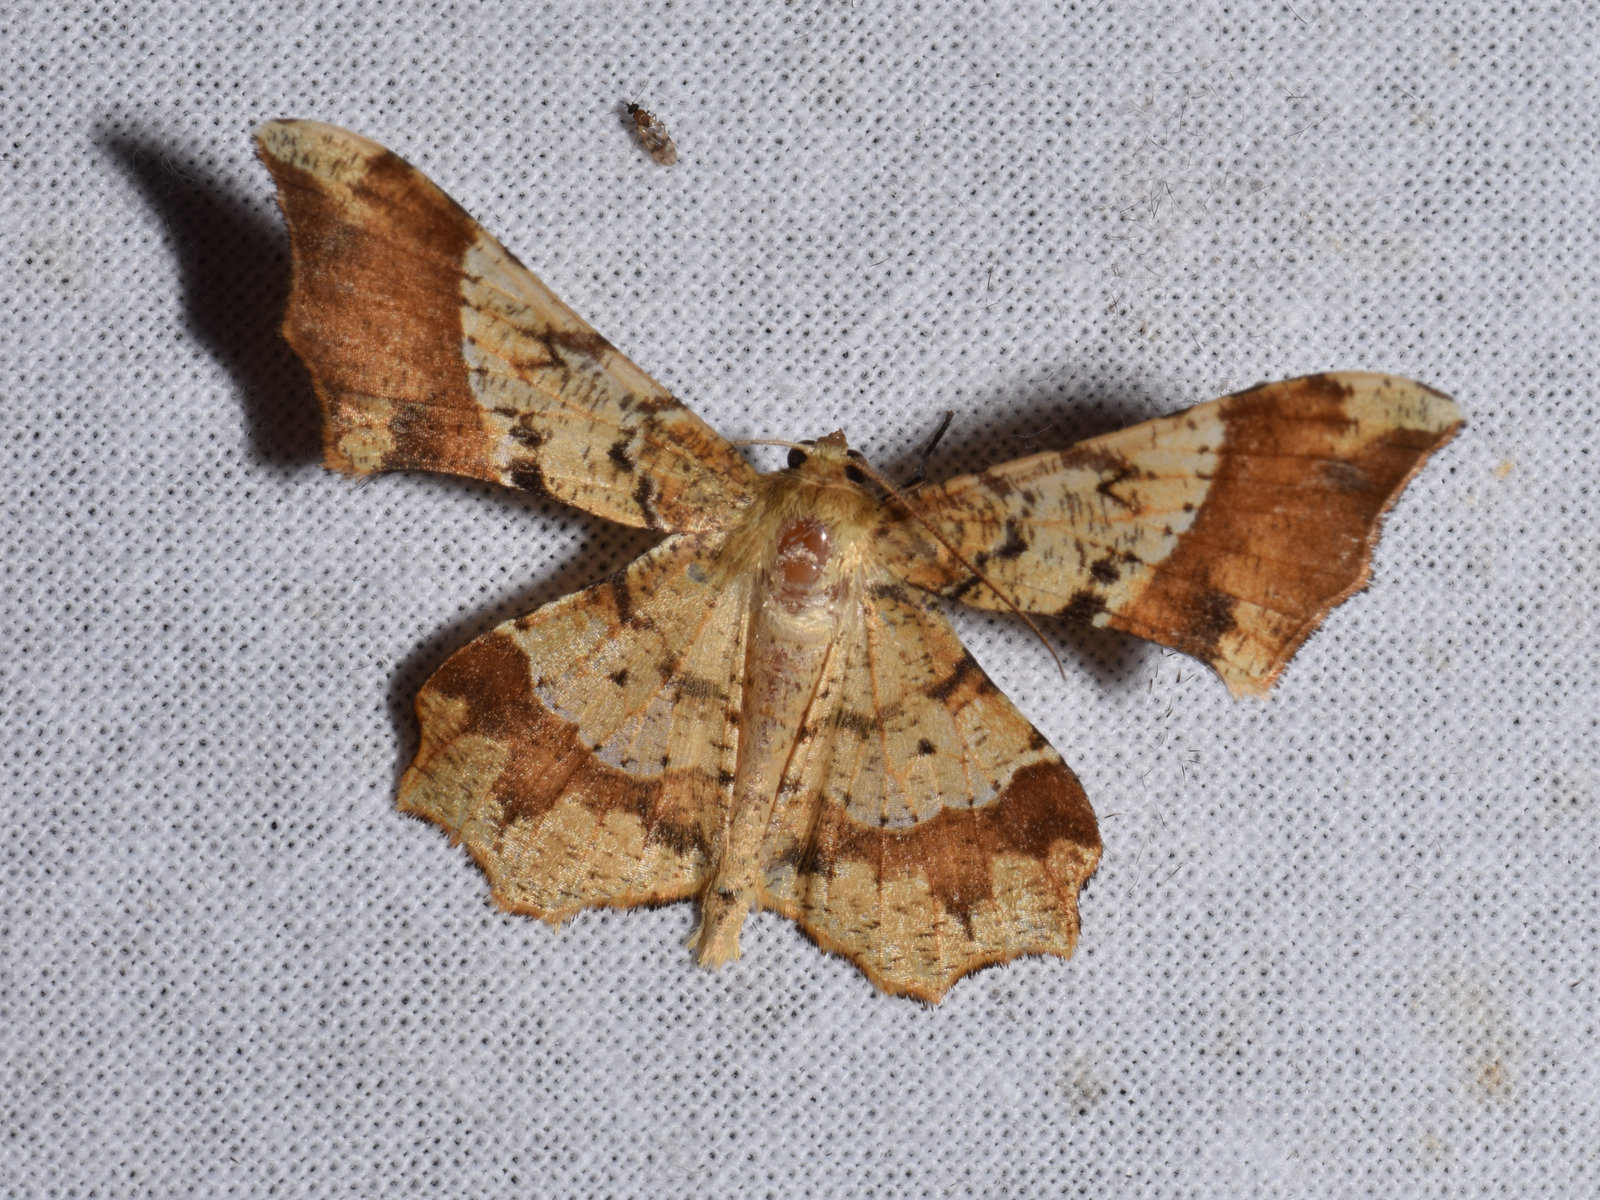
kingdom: Animalia
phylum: Arthropoda
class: Insecta
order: Lepidoptera
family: Geometridae
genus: Krananda
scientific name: Krananda orthotmeta
